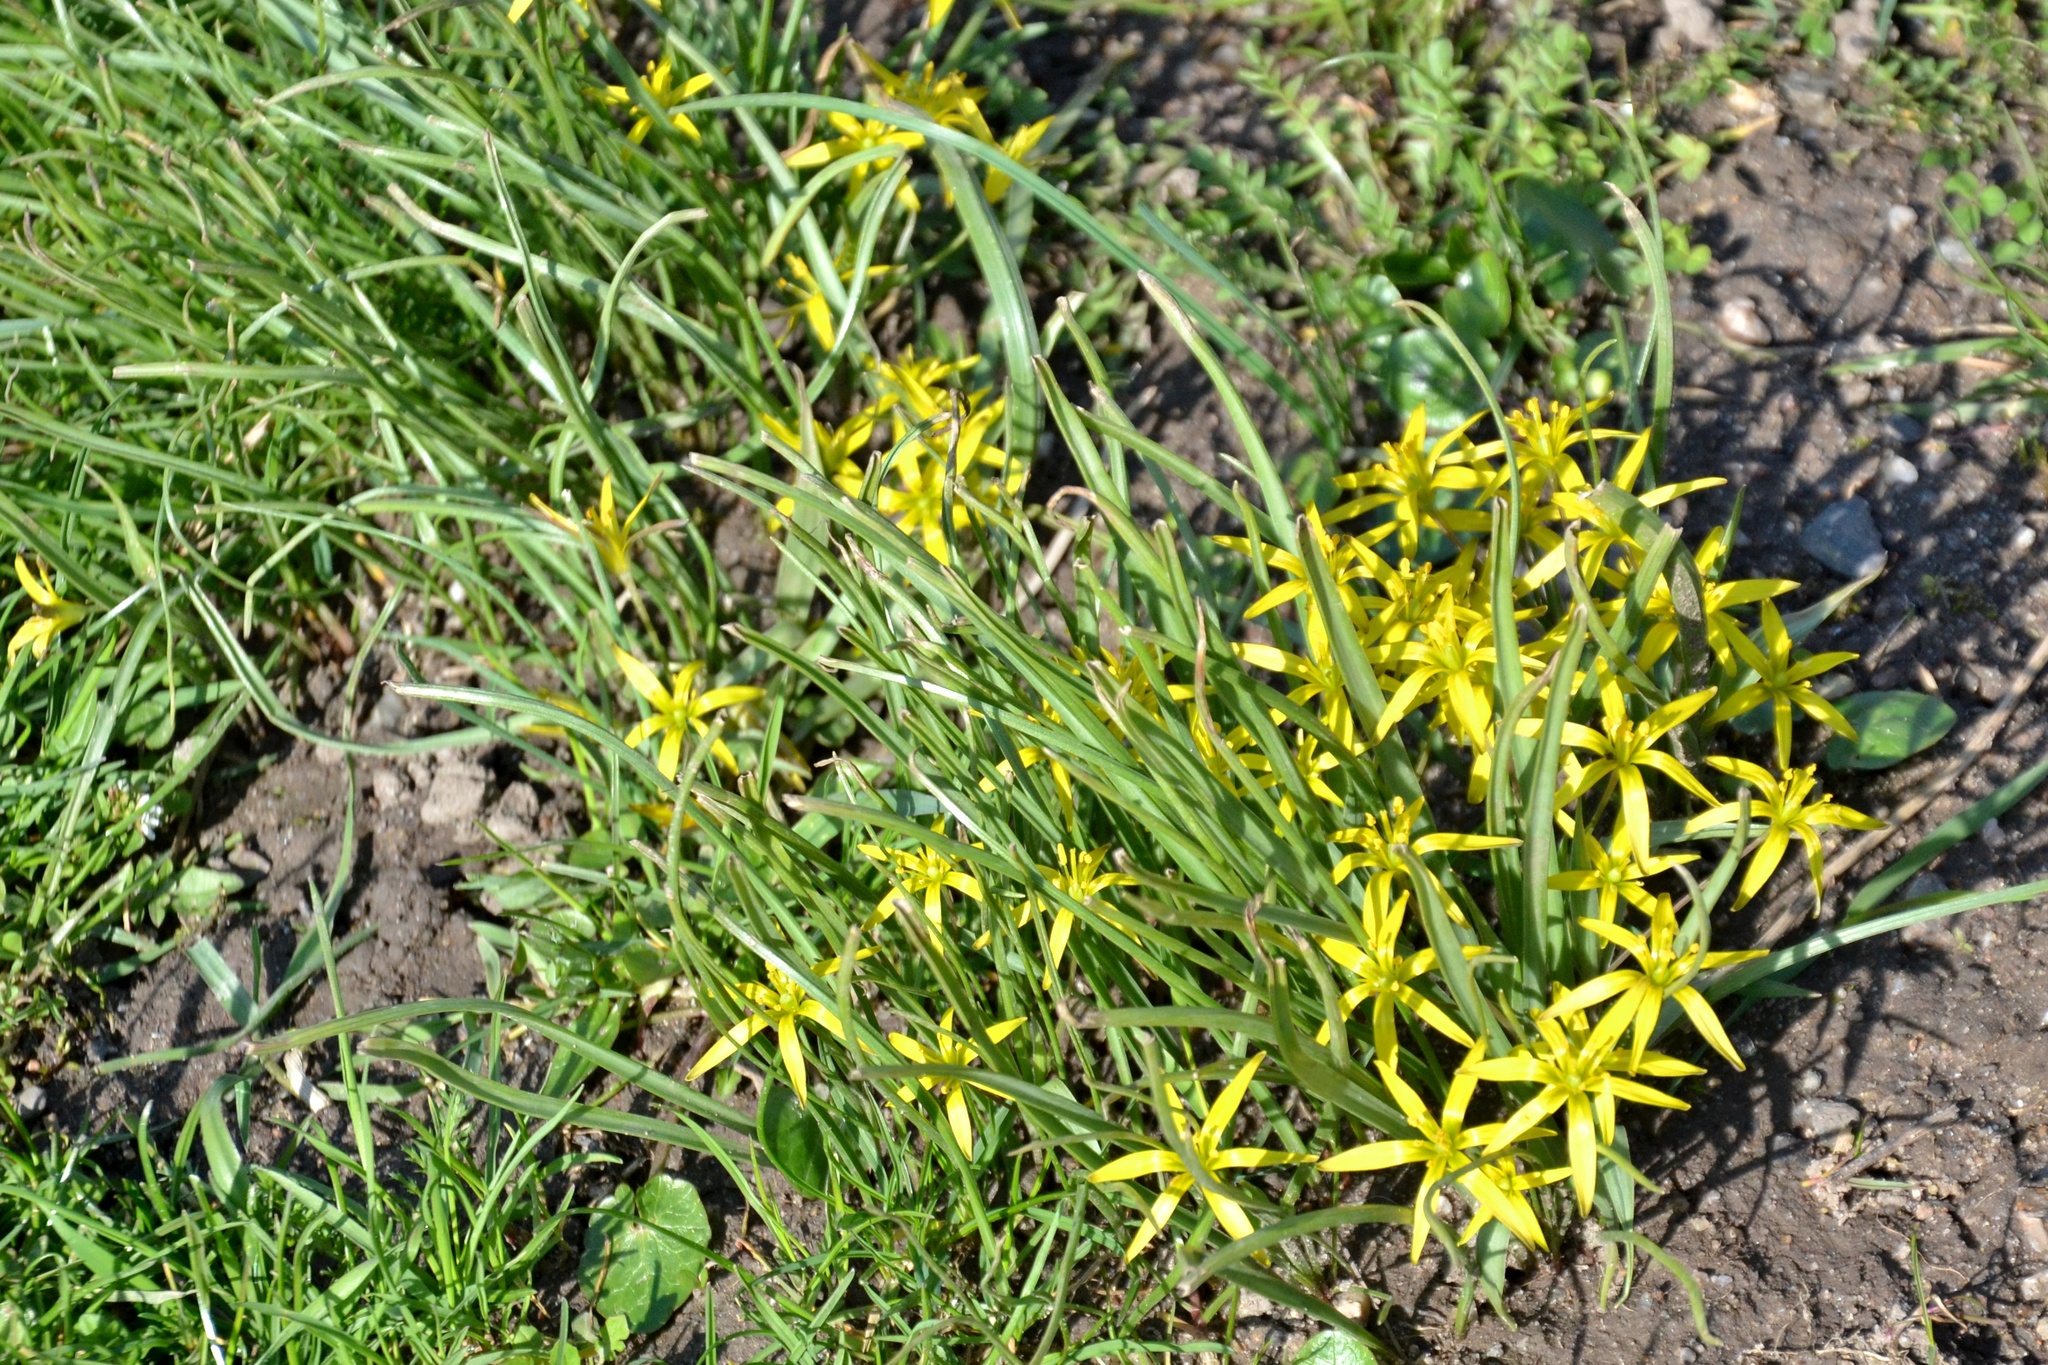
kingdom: Plantae
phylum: Tracheophyta
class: Liliopsida
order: Liliales
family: Liliaceae
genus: Gagea
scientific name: Gagea pratensis
